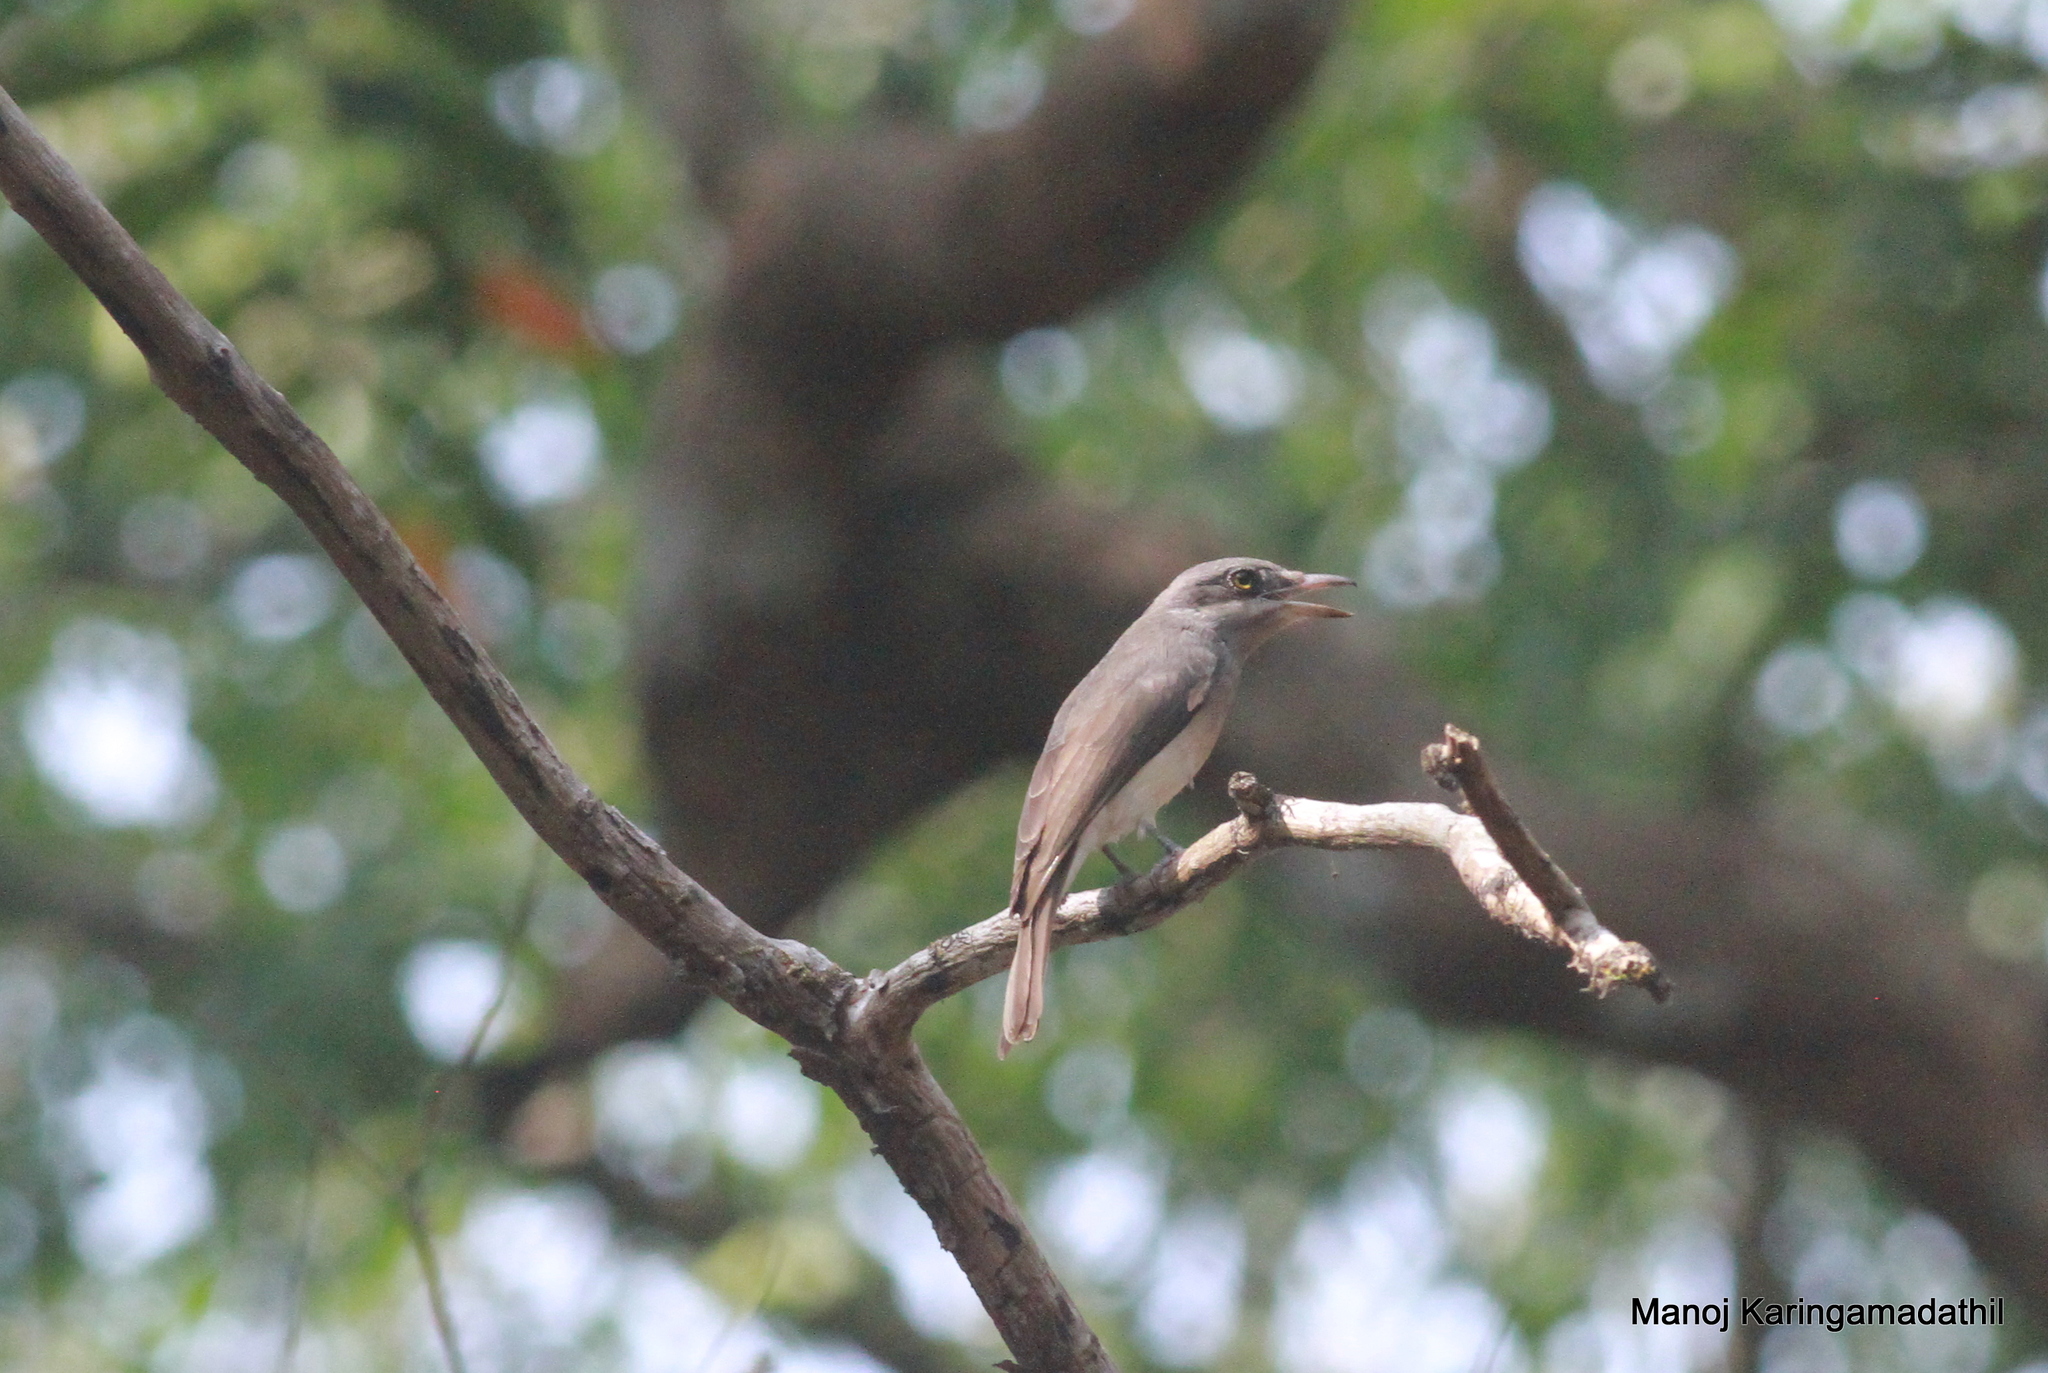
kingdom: Animalia
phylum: Chordata
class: Aves
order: Passeriformes
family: Tephrodornithidae
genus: Tephrodornis
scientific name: Tephrodornis pondicerianus
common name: Common woodshrike
